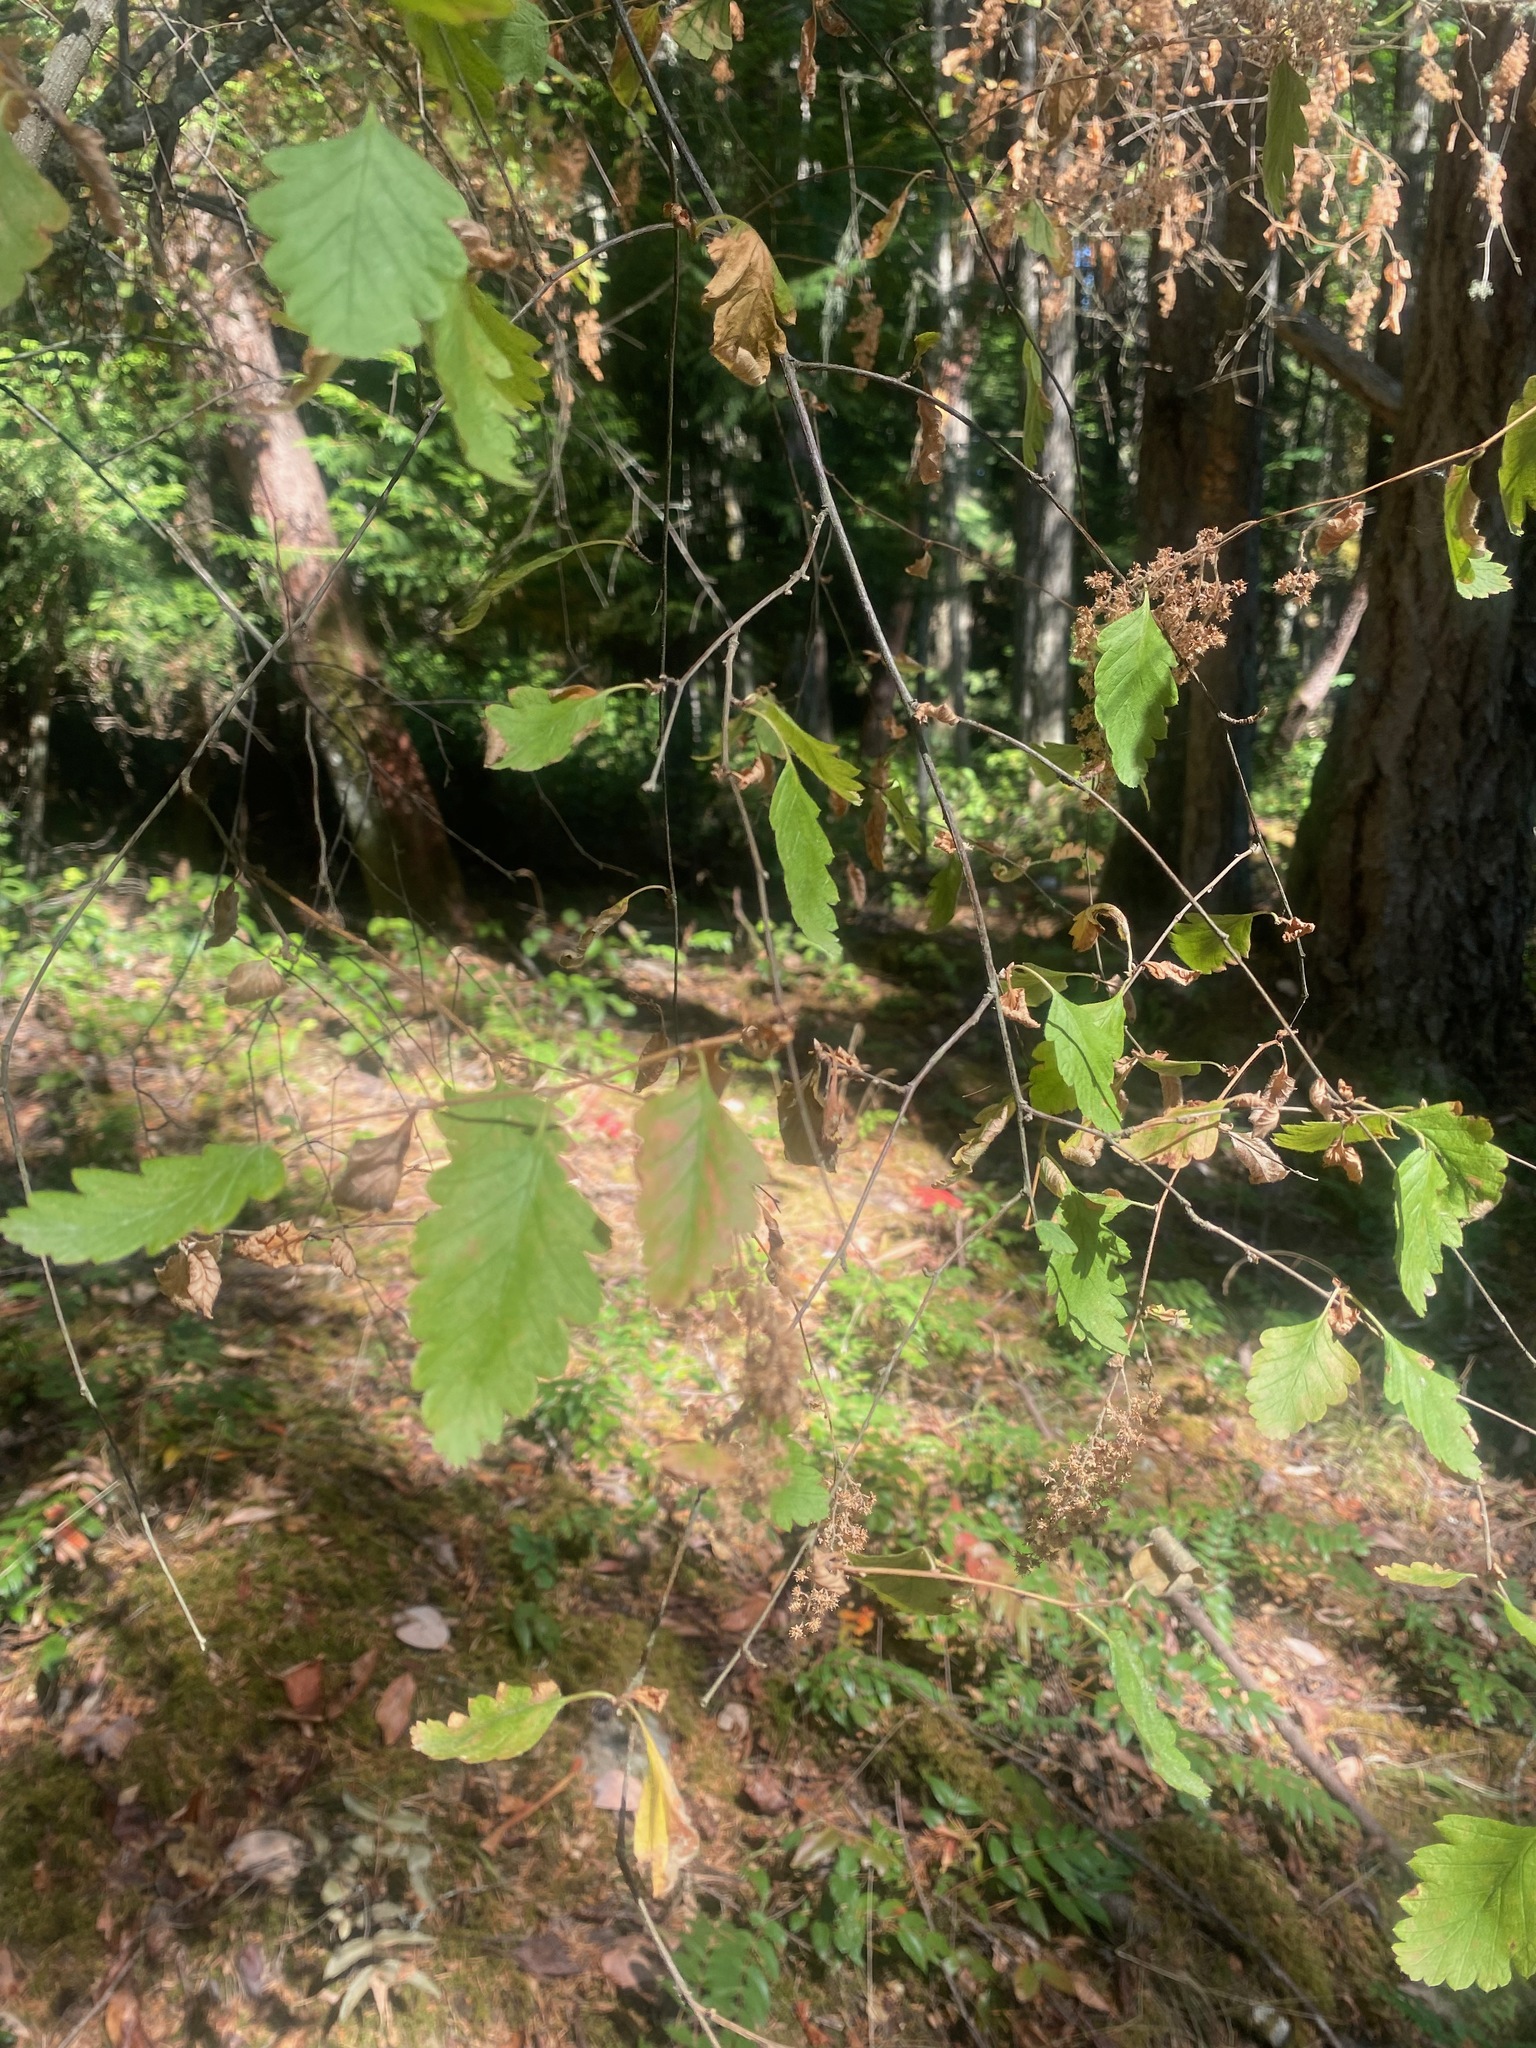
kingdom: Plantae
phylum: Tracheophyta
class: Magnoliopsida
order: Rosales
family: Rosaceae
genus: Holodiscus
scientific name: Holodiscus discolor
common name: Oceanspray
